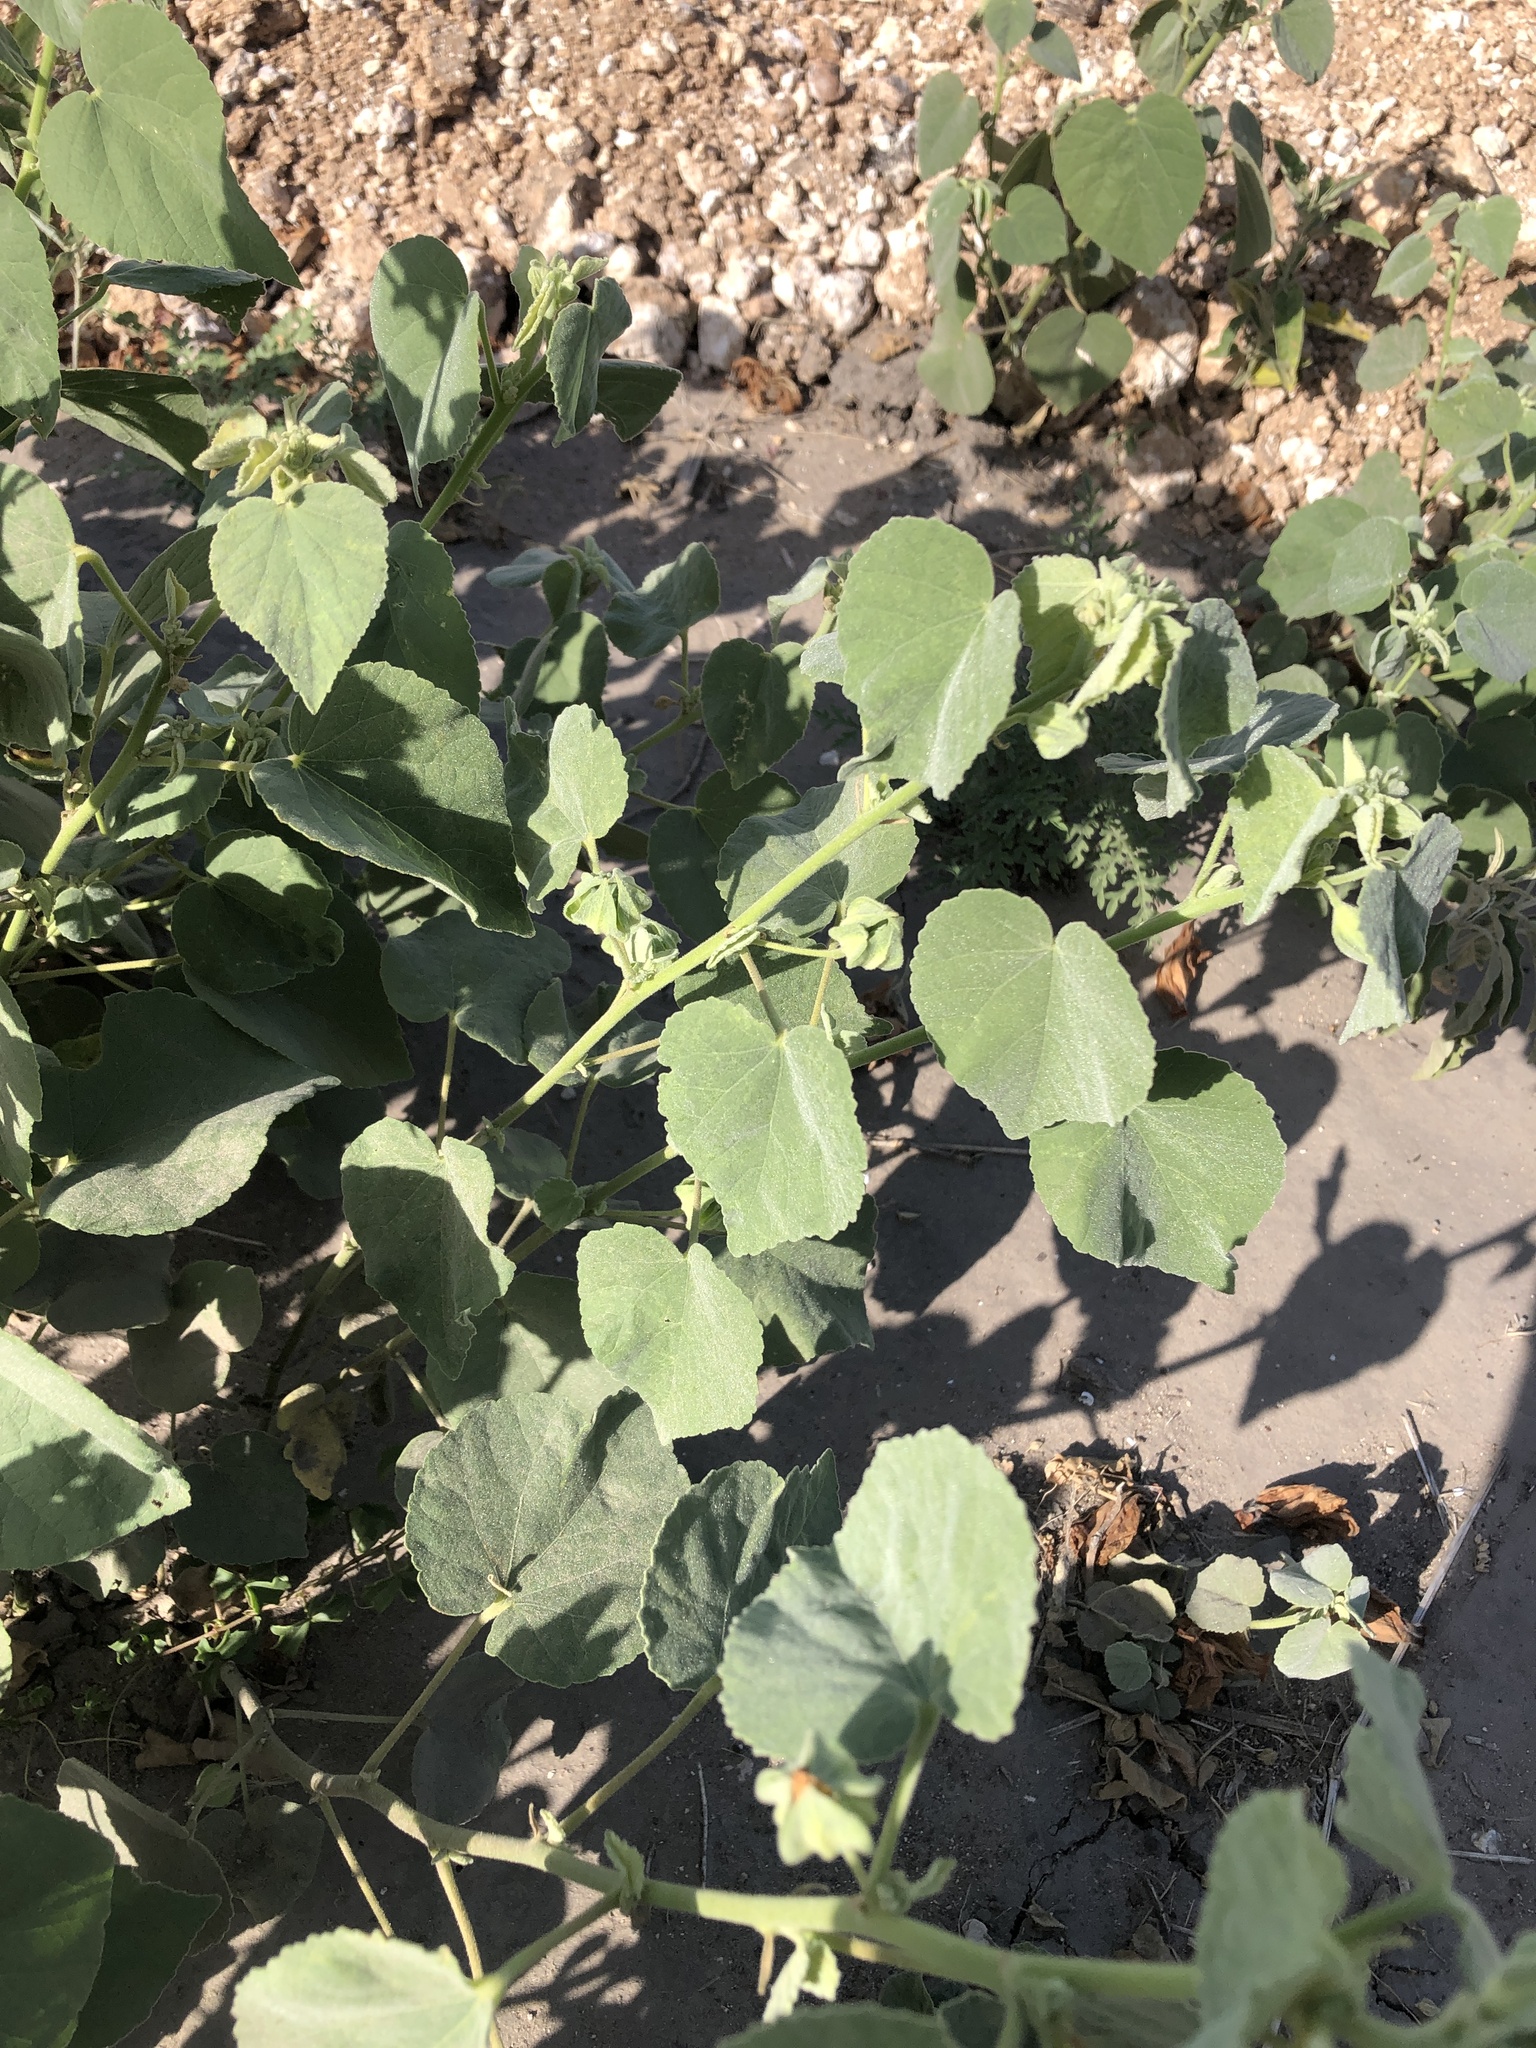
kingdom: Plantae
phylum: Tracheophyta
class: Magnoliopsida
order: Malvales
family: Malvaceae
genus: Abutilon
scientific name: Abutilon berlandieri
